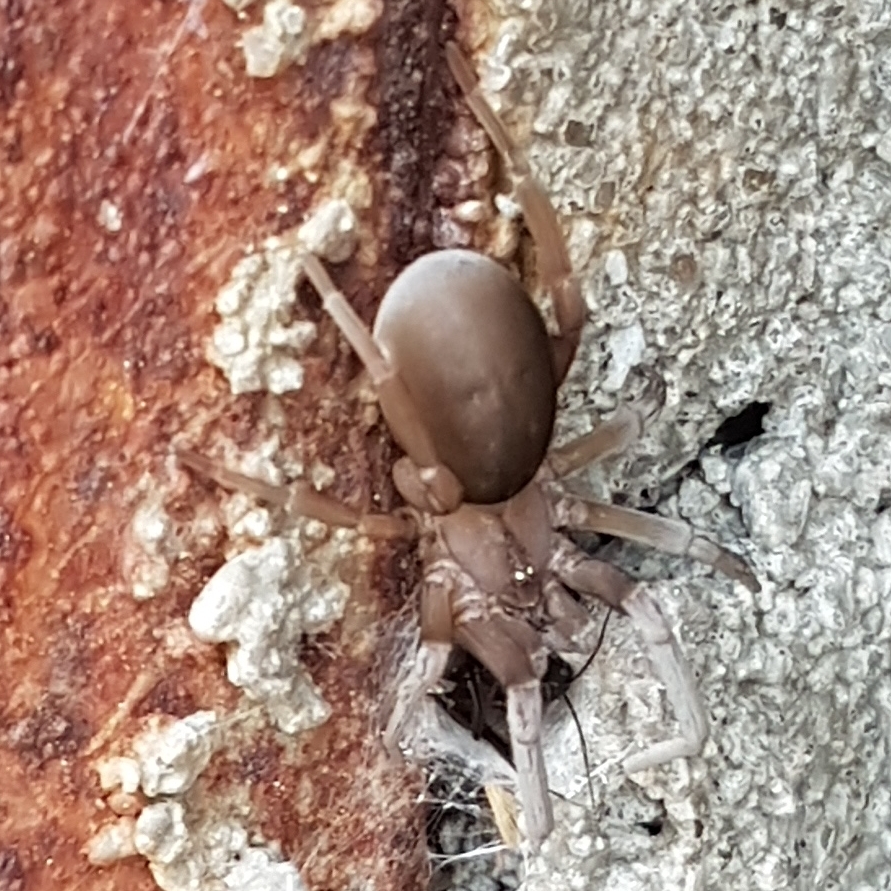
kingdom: Animalia
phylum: Arthropoda
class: Arachnida
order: Araneae
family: Filistatidae
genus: Filistata
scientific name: Filistata insidiatrix
